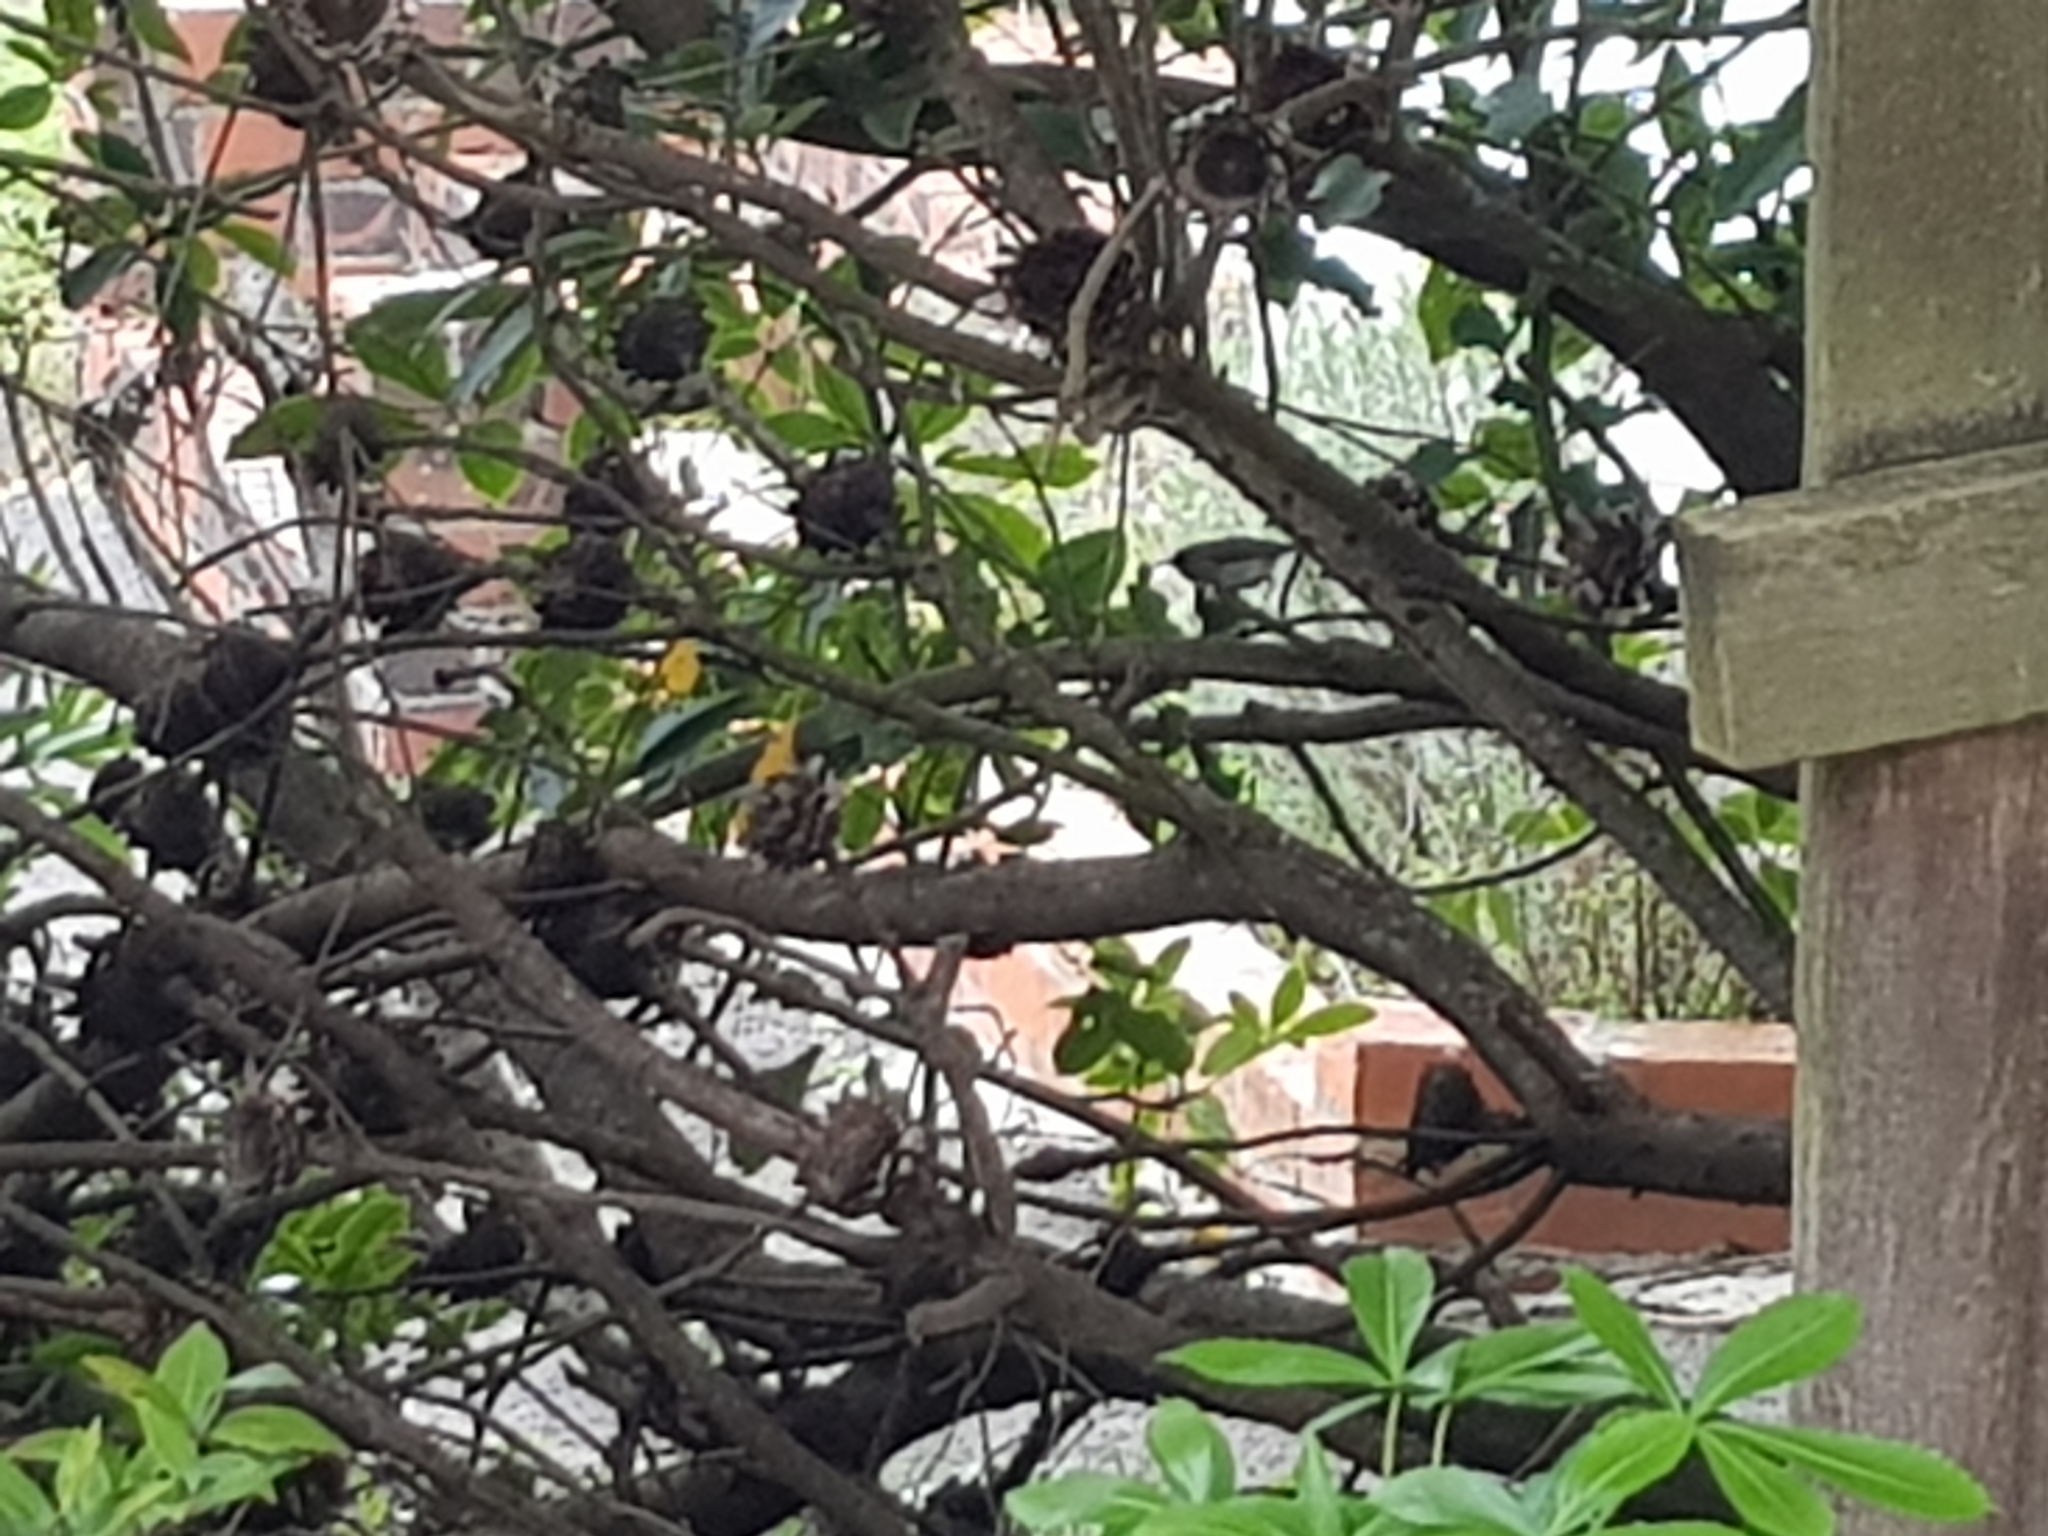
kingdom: Animalia
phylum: Chordata
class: Aves
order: Passeriformes
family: Acanthizidae
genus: Gerygone
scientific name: Gerygone igata
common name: Grey gerygone
